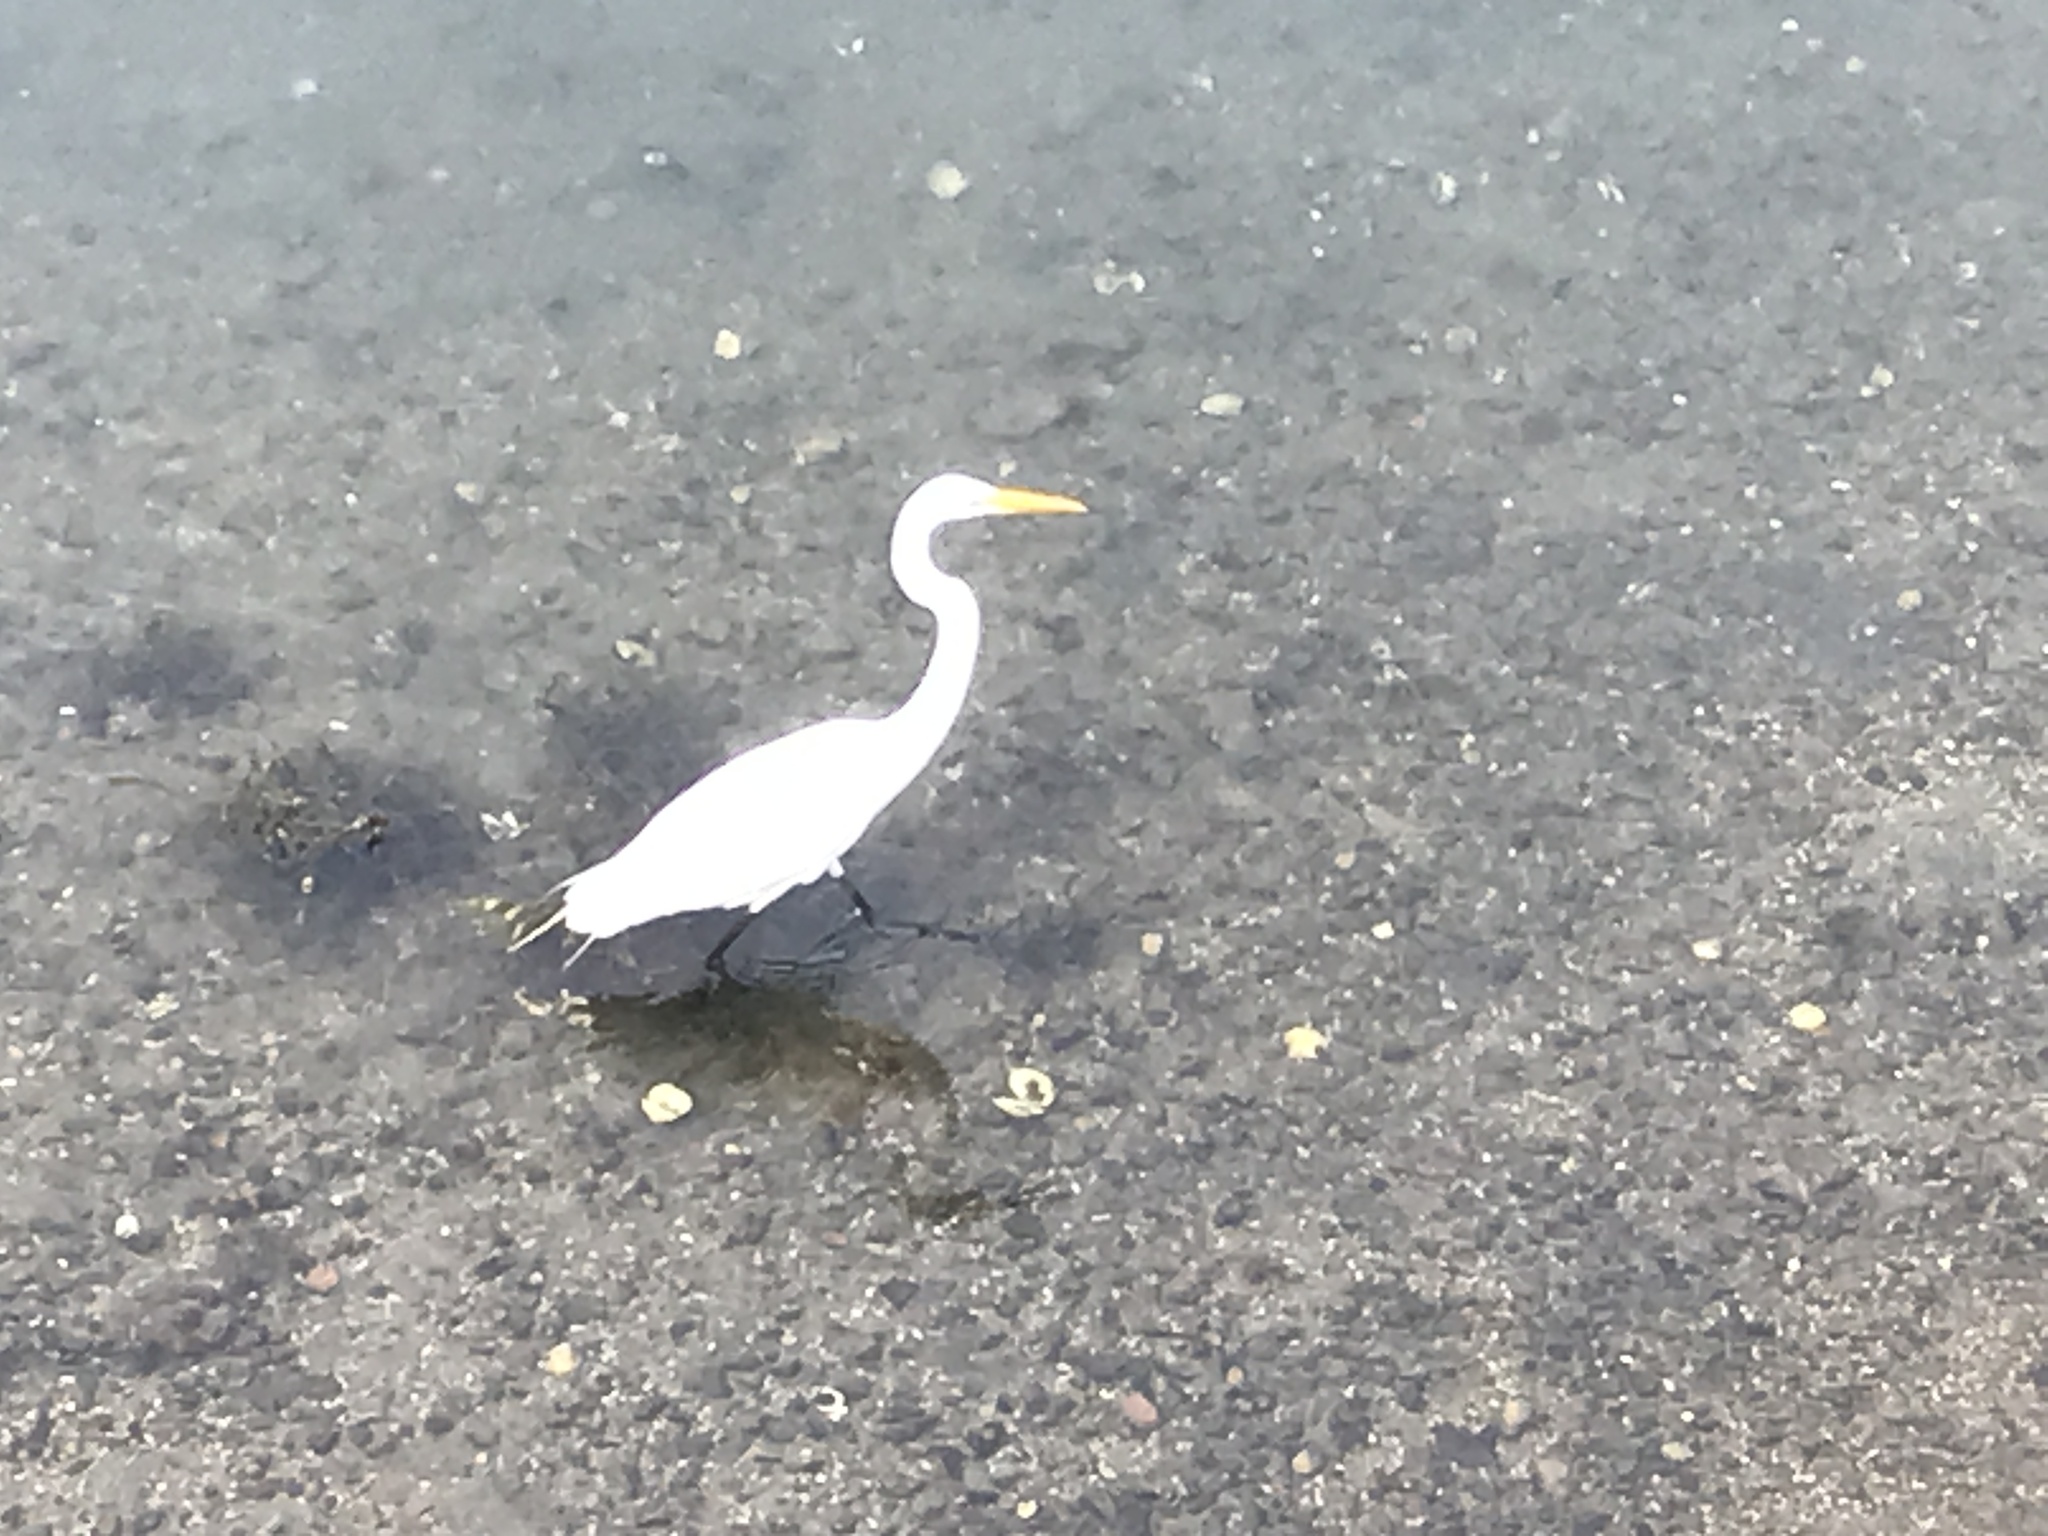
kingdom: Animalia
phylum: Chordata
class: Aves
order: Pelecaniformes
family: Ardeidae
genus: Ardea
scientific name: Ardea alba
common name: Great egret
